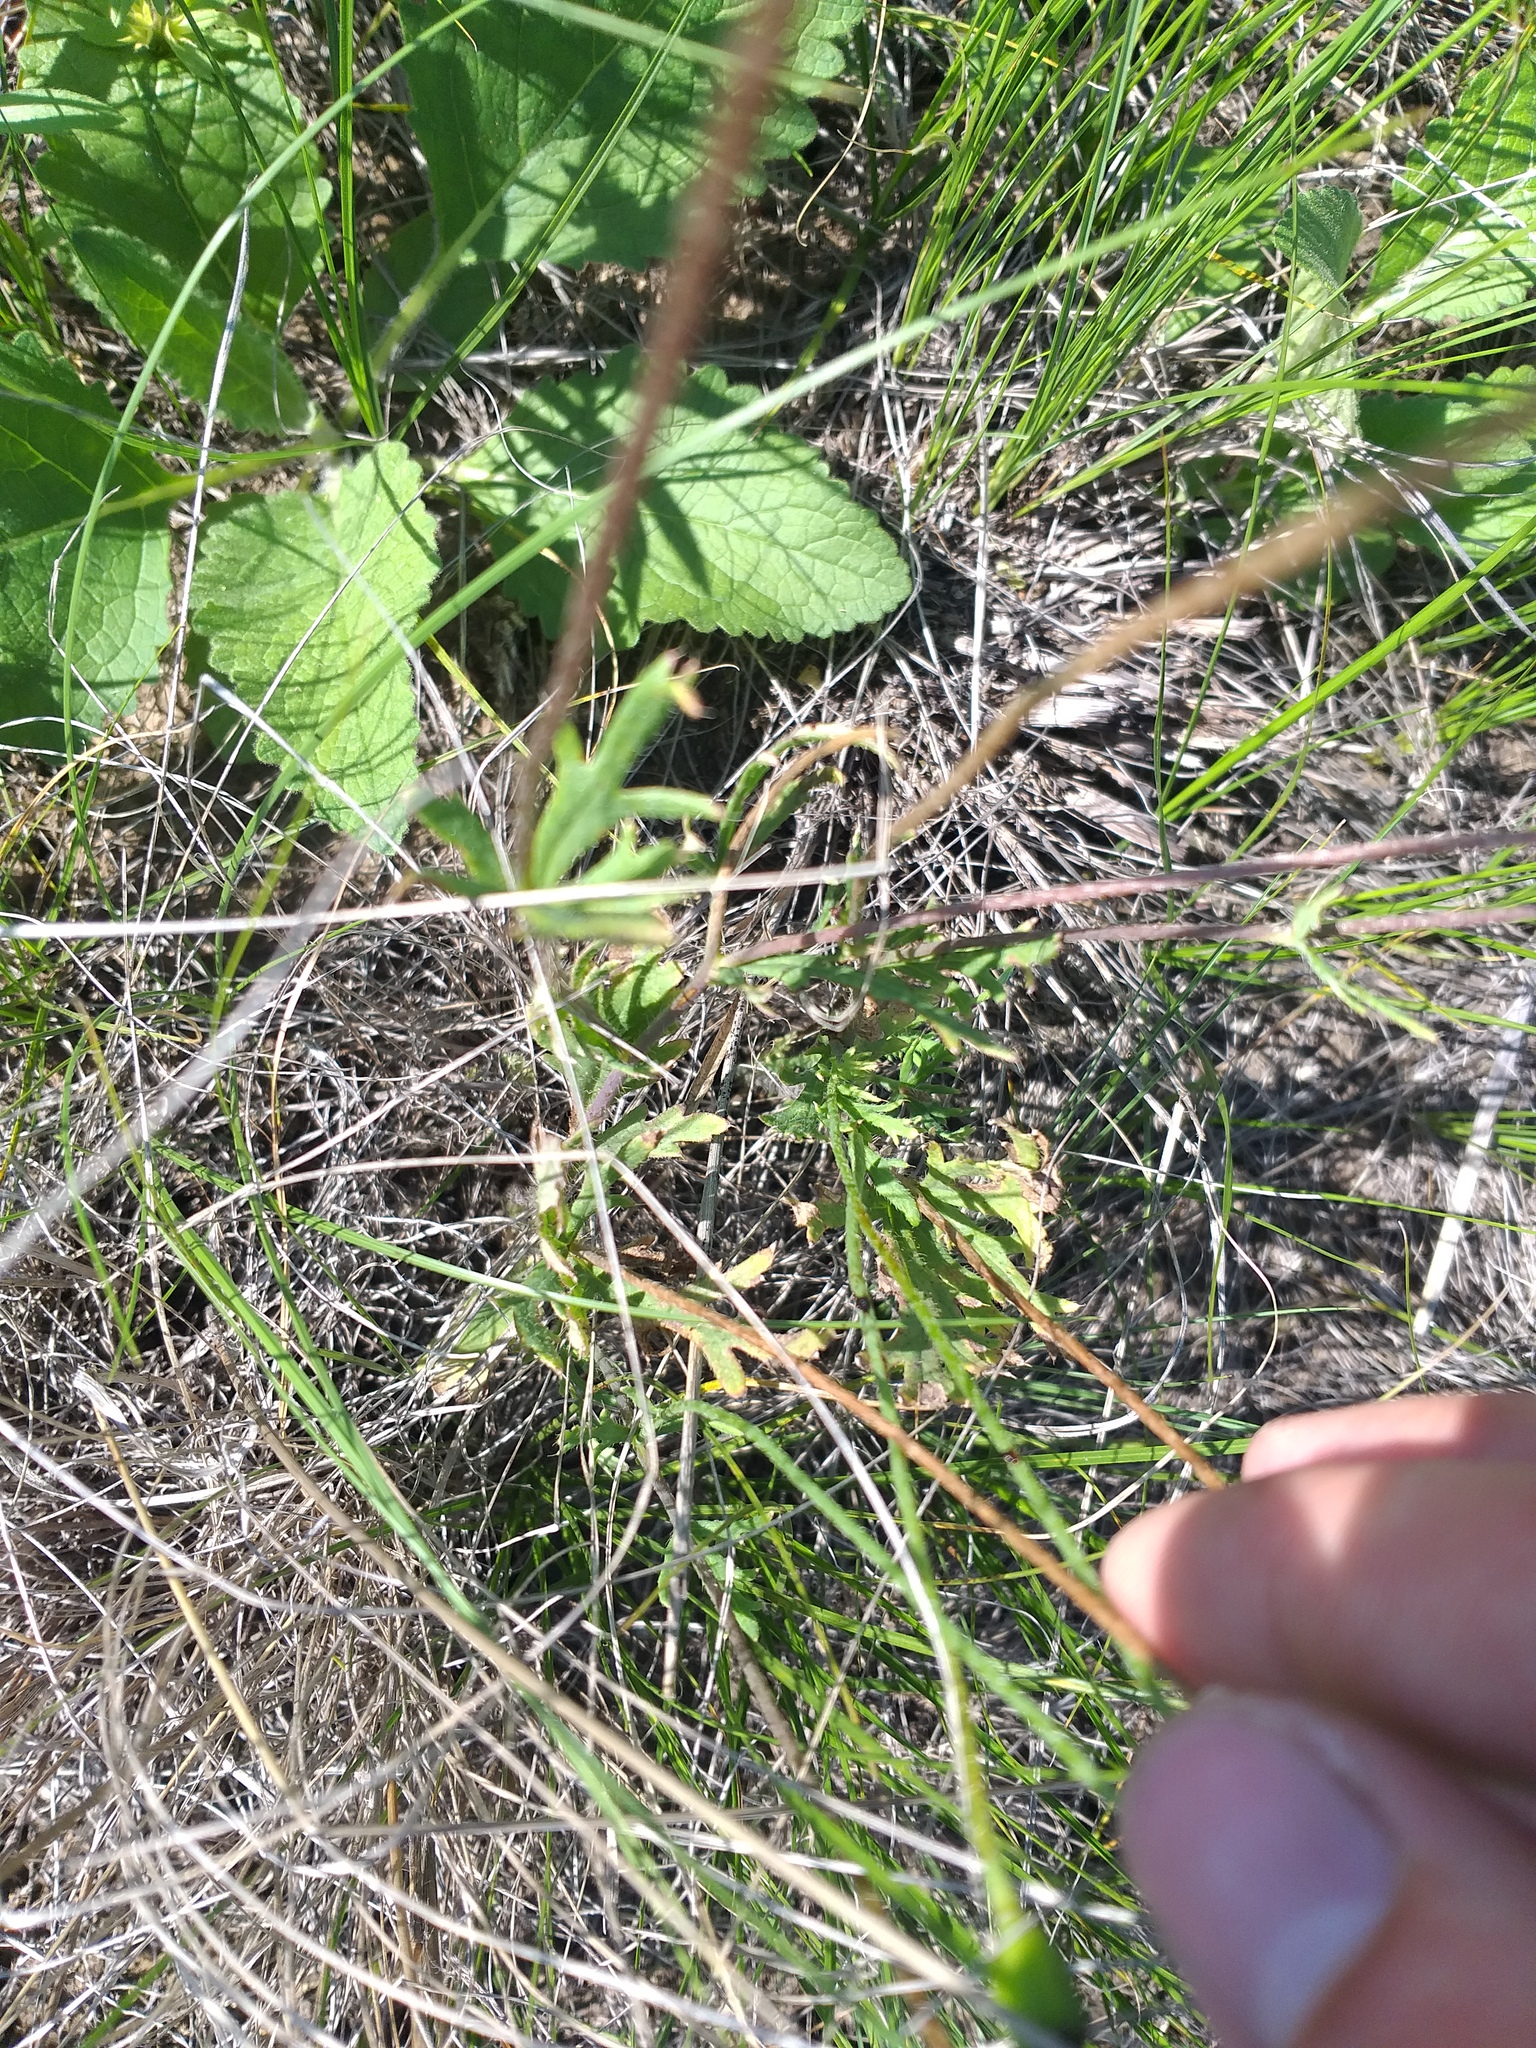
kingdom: Plantae
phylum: Tracheophyta
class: Magnoliopsida
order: Ranunculales
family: Papaveraceae
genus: Papaver
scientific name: Papaver dubium
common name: Long-headed poppy
